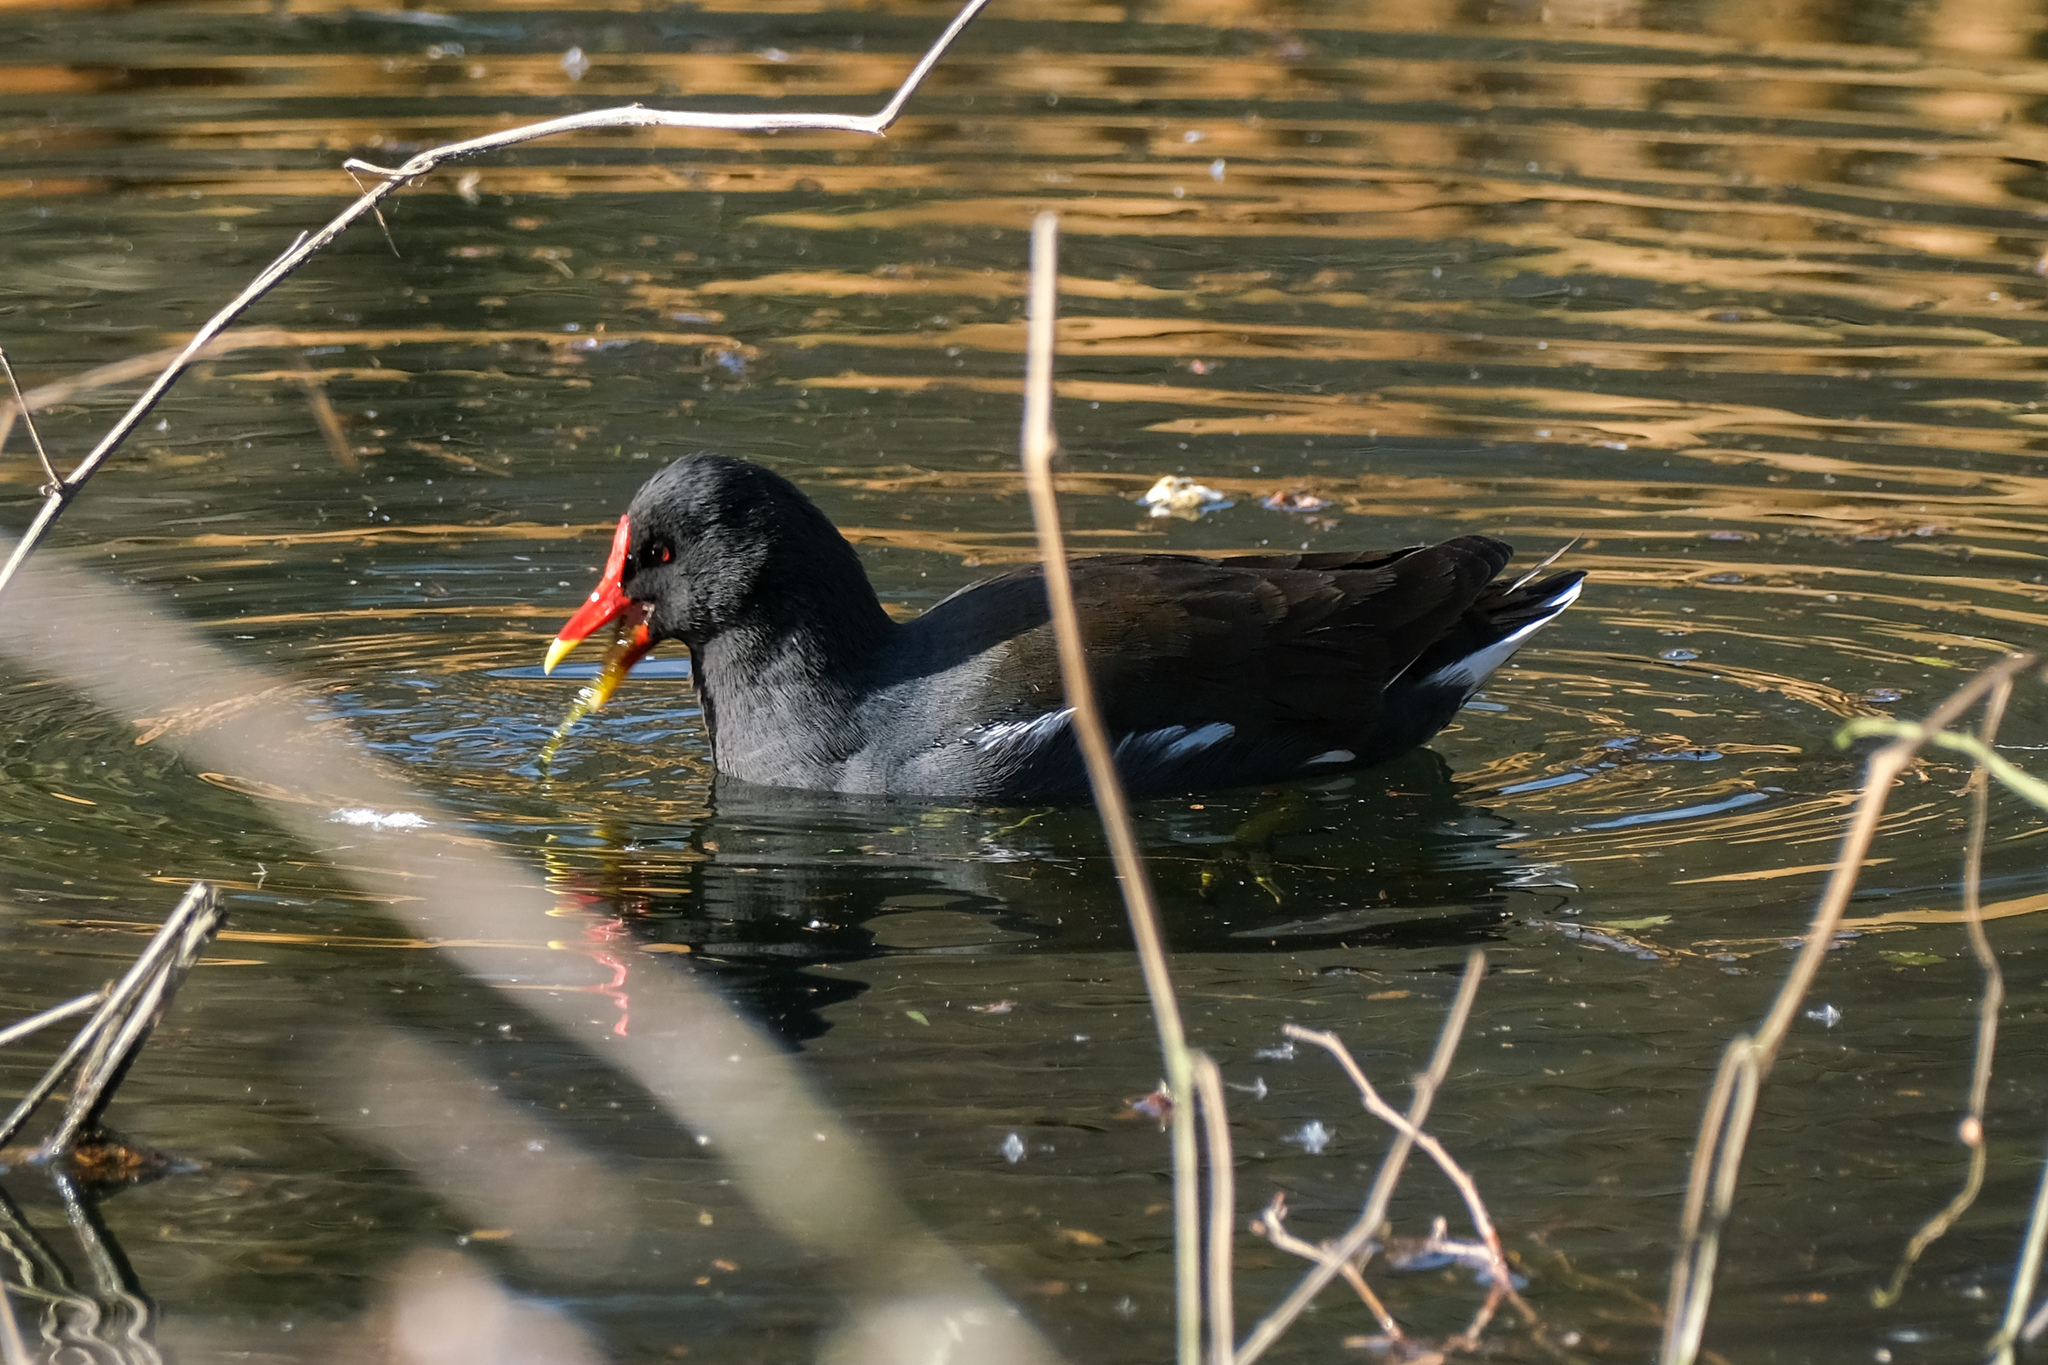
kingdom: Animalia
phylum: Chordata
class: Aves
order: Gruiformes
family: Rallidae
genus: Gallinula
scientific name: Gallinula chloropus
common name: Common moorhen
